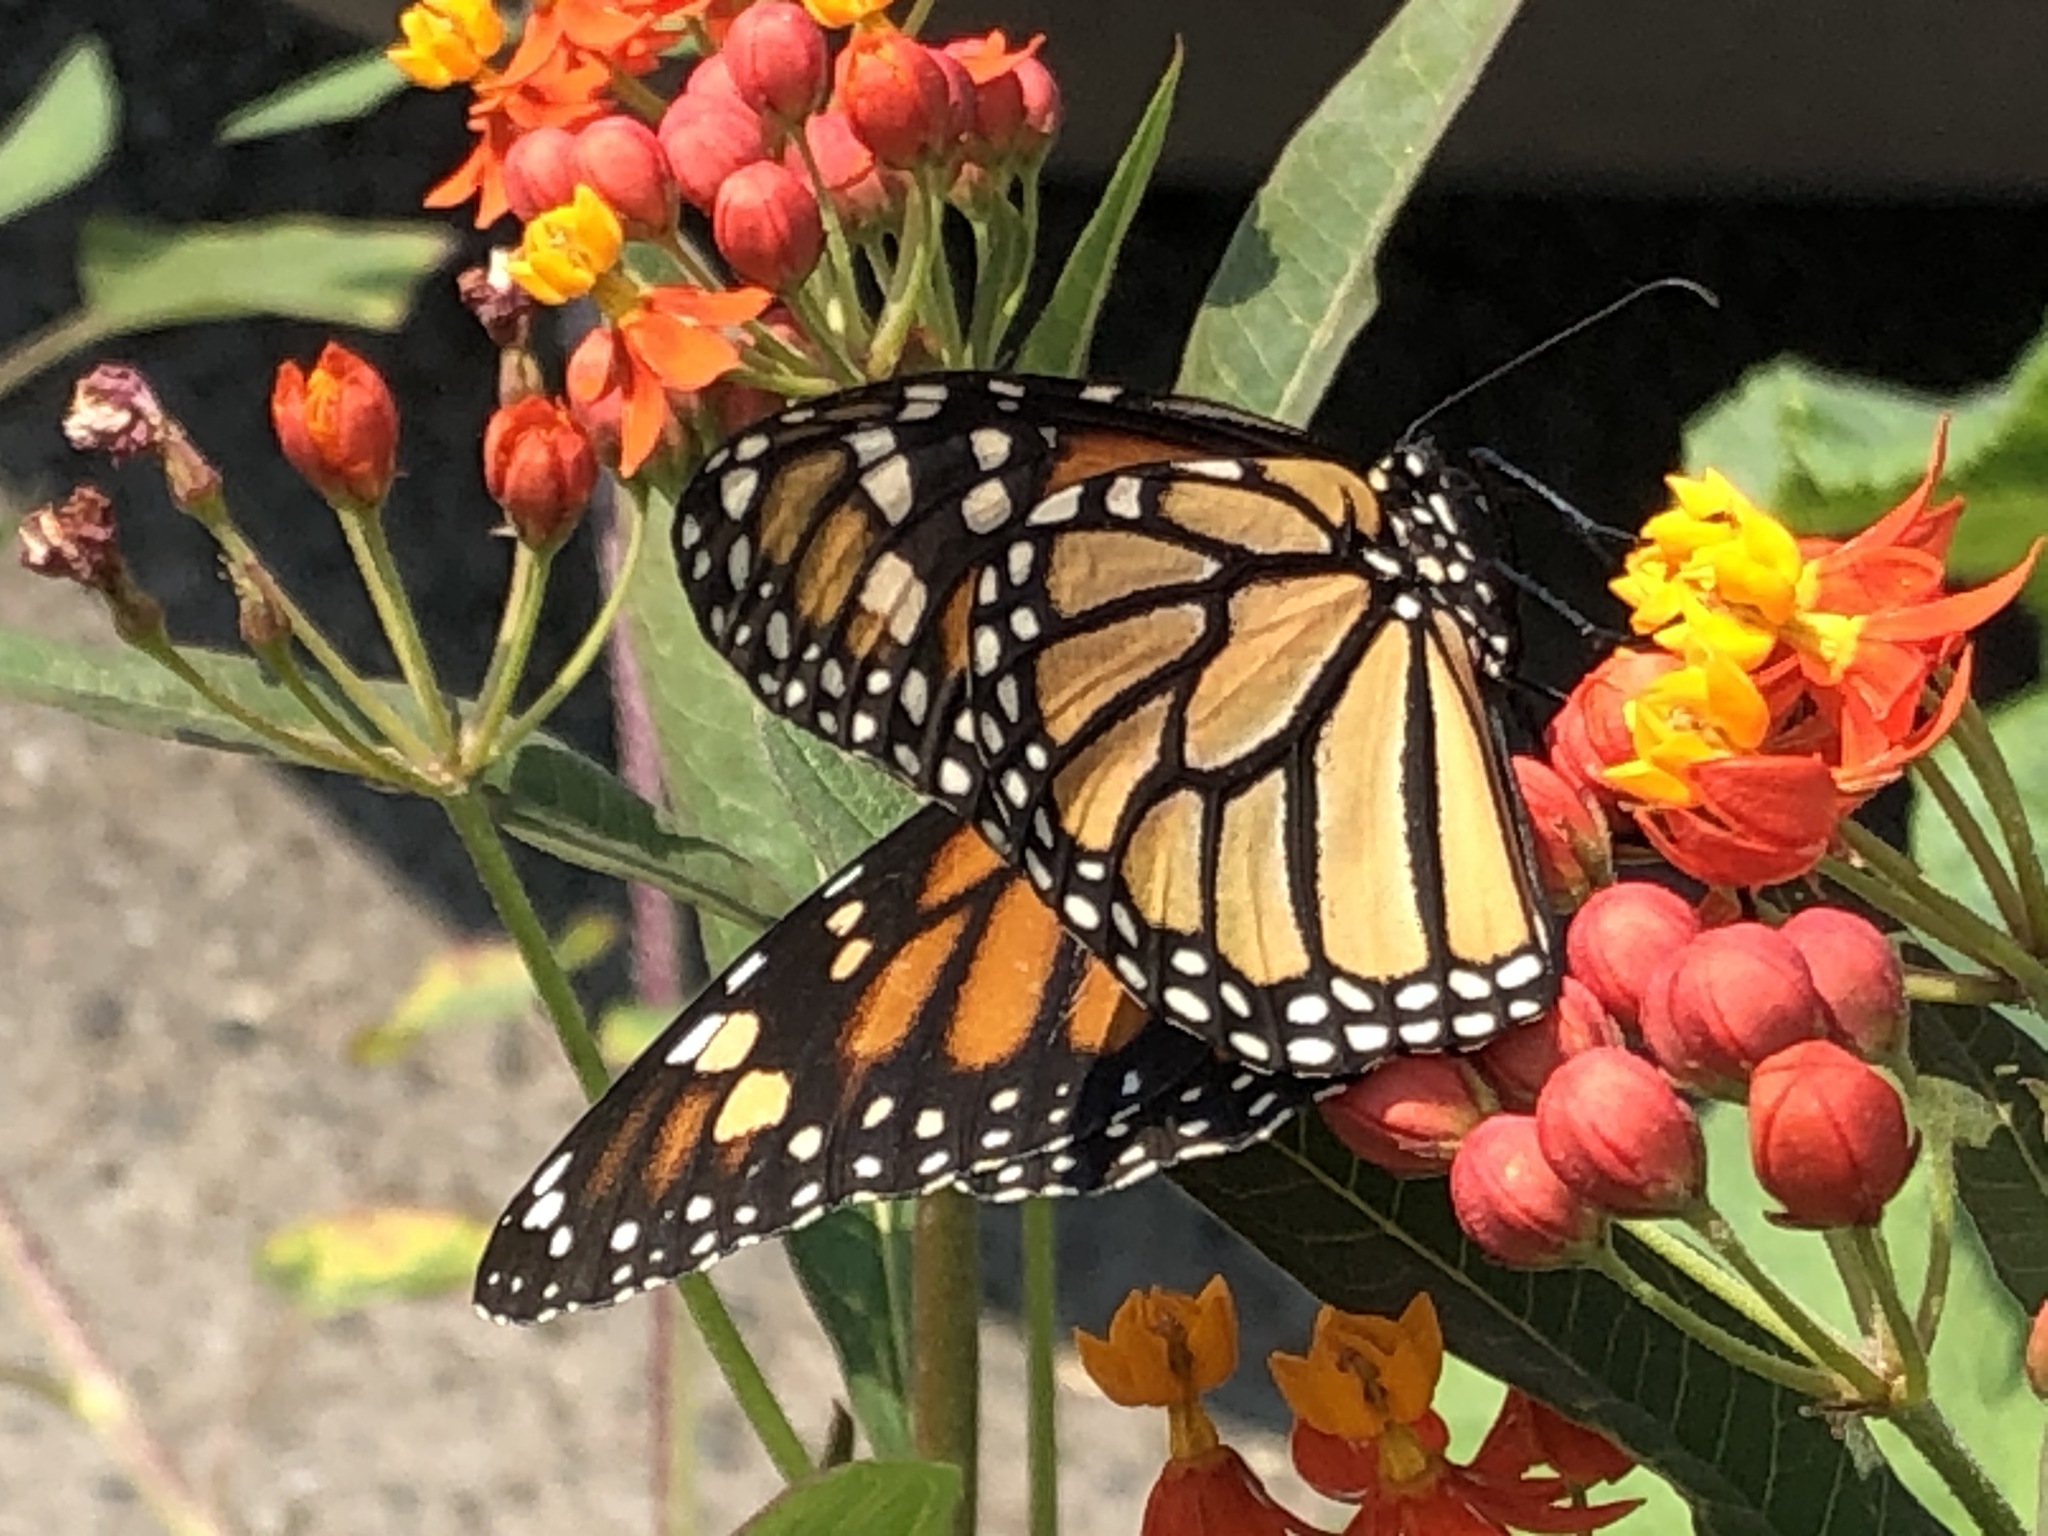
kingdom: Animalia
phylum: Arthropoda
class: Insecta
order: Lepidoptera
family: Nymphalidae
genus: Danaus
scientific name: Danaus plexippus
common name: Monarch
